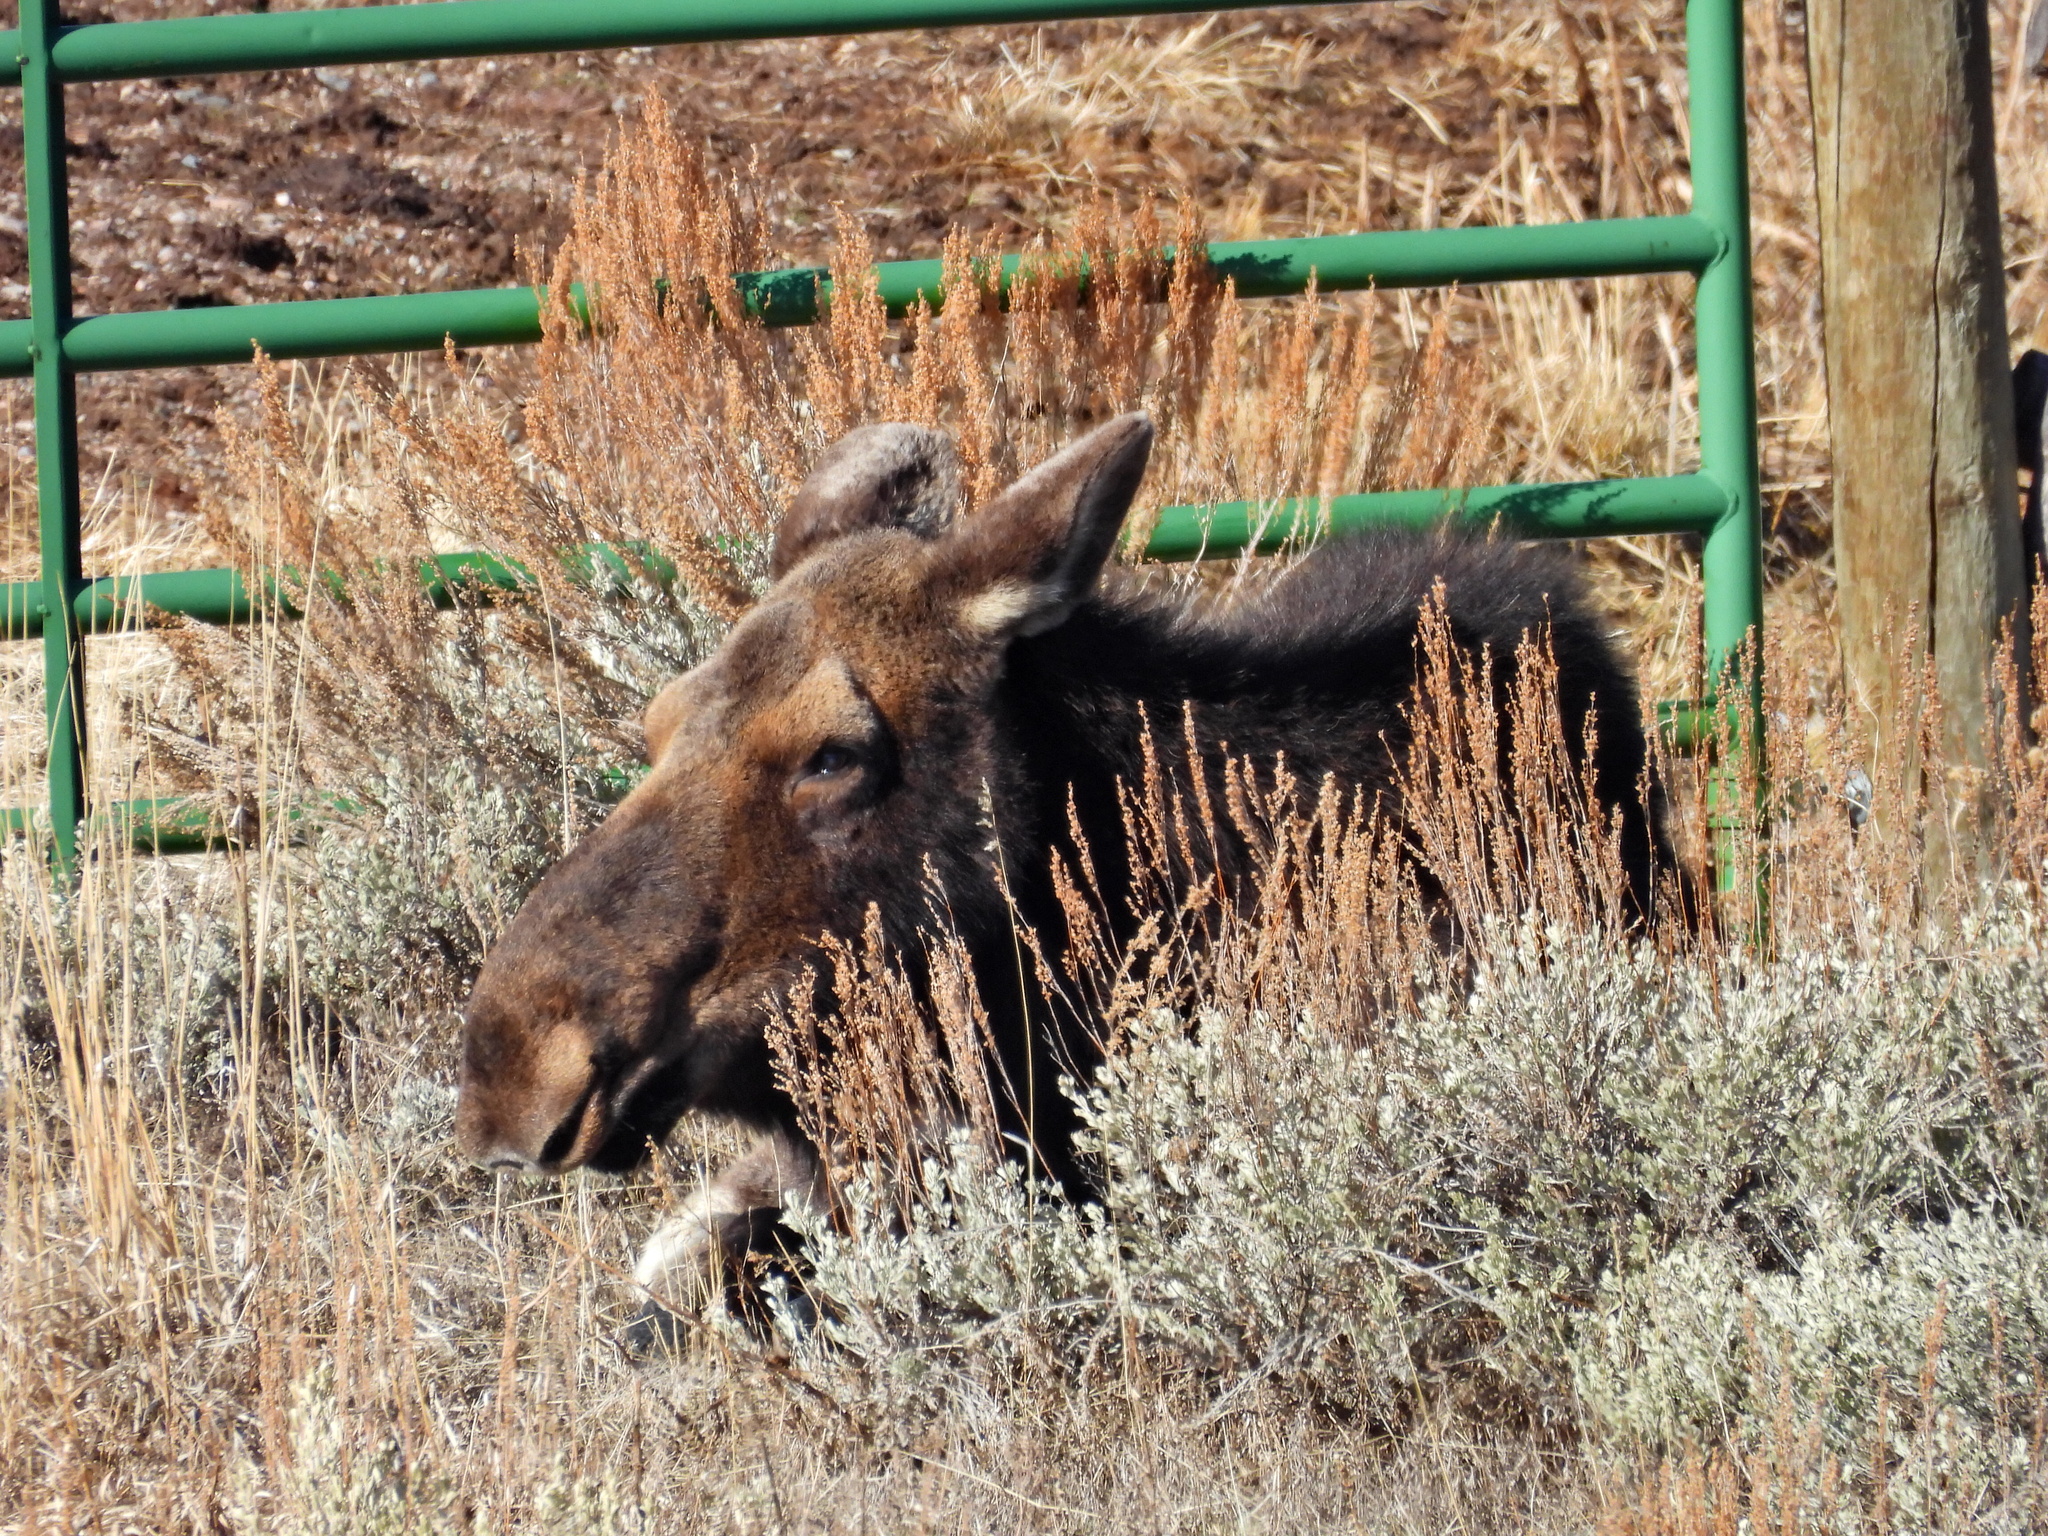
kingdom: Animalia
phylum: Chordata
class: Mammalia
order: Artiodactyla
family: Cervidae
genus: Alces
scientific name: Alces americanus
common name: Moose
